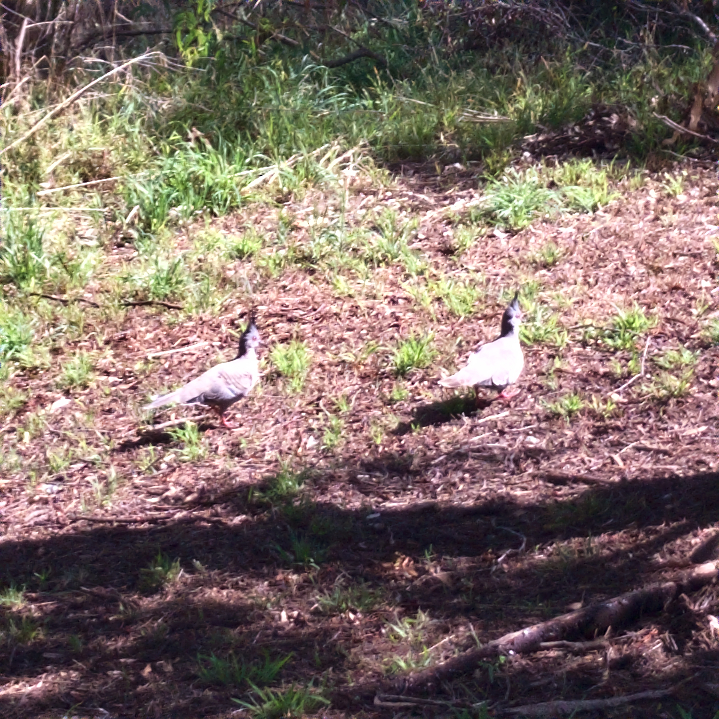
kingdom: Animalia
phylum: Chordata
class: Aves
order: Columbiformes
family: Columbidae
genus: Ocyphaps
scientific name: Ocyphaps lophotes
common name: Crested pigeon
